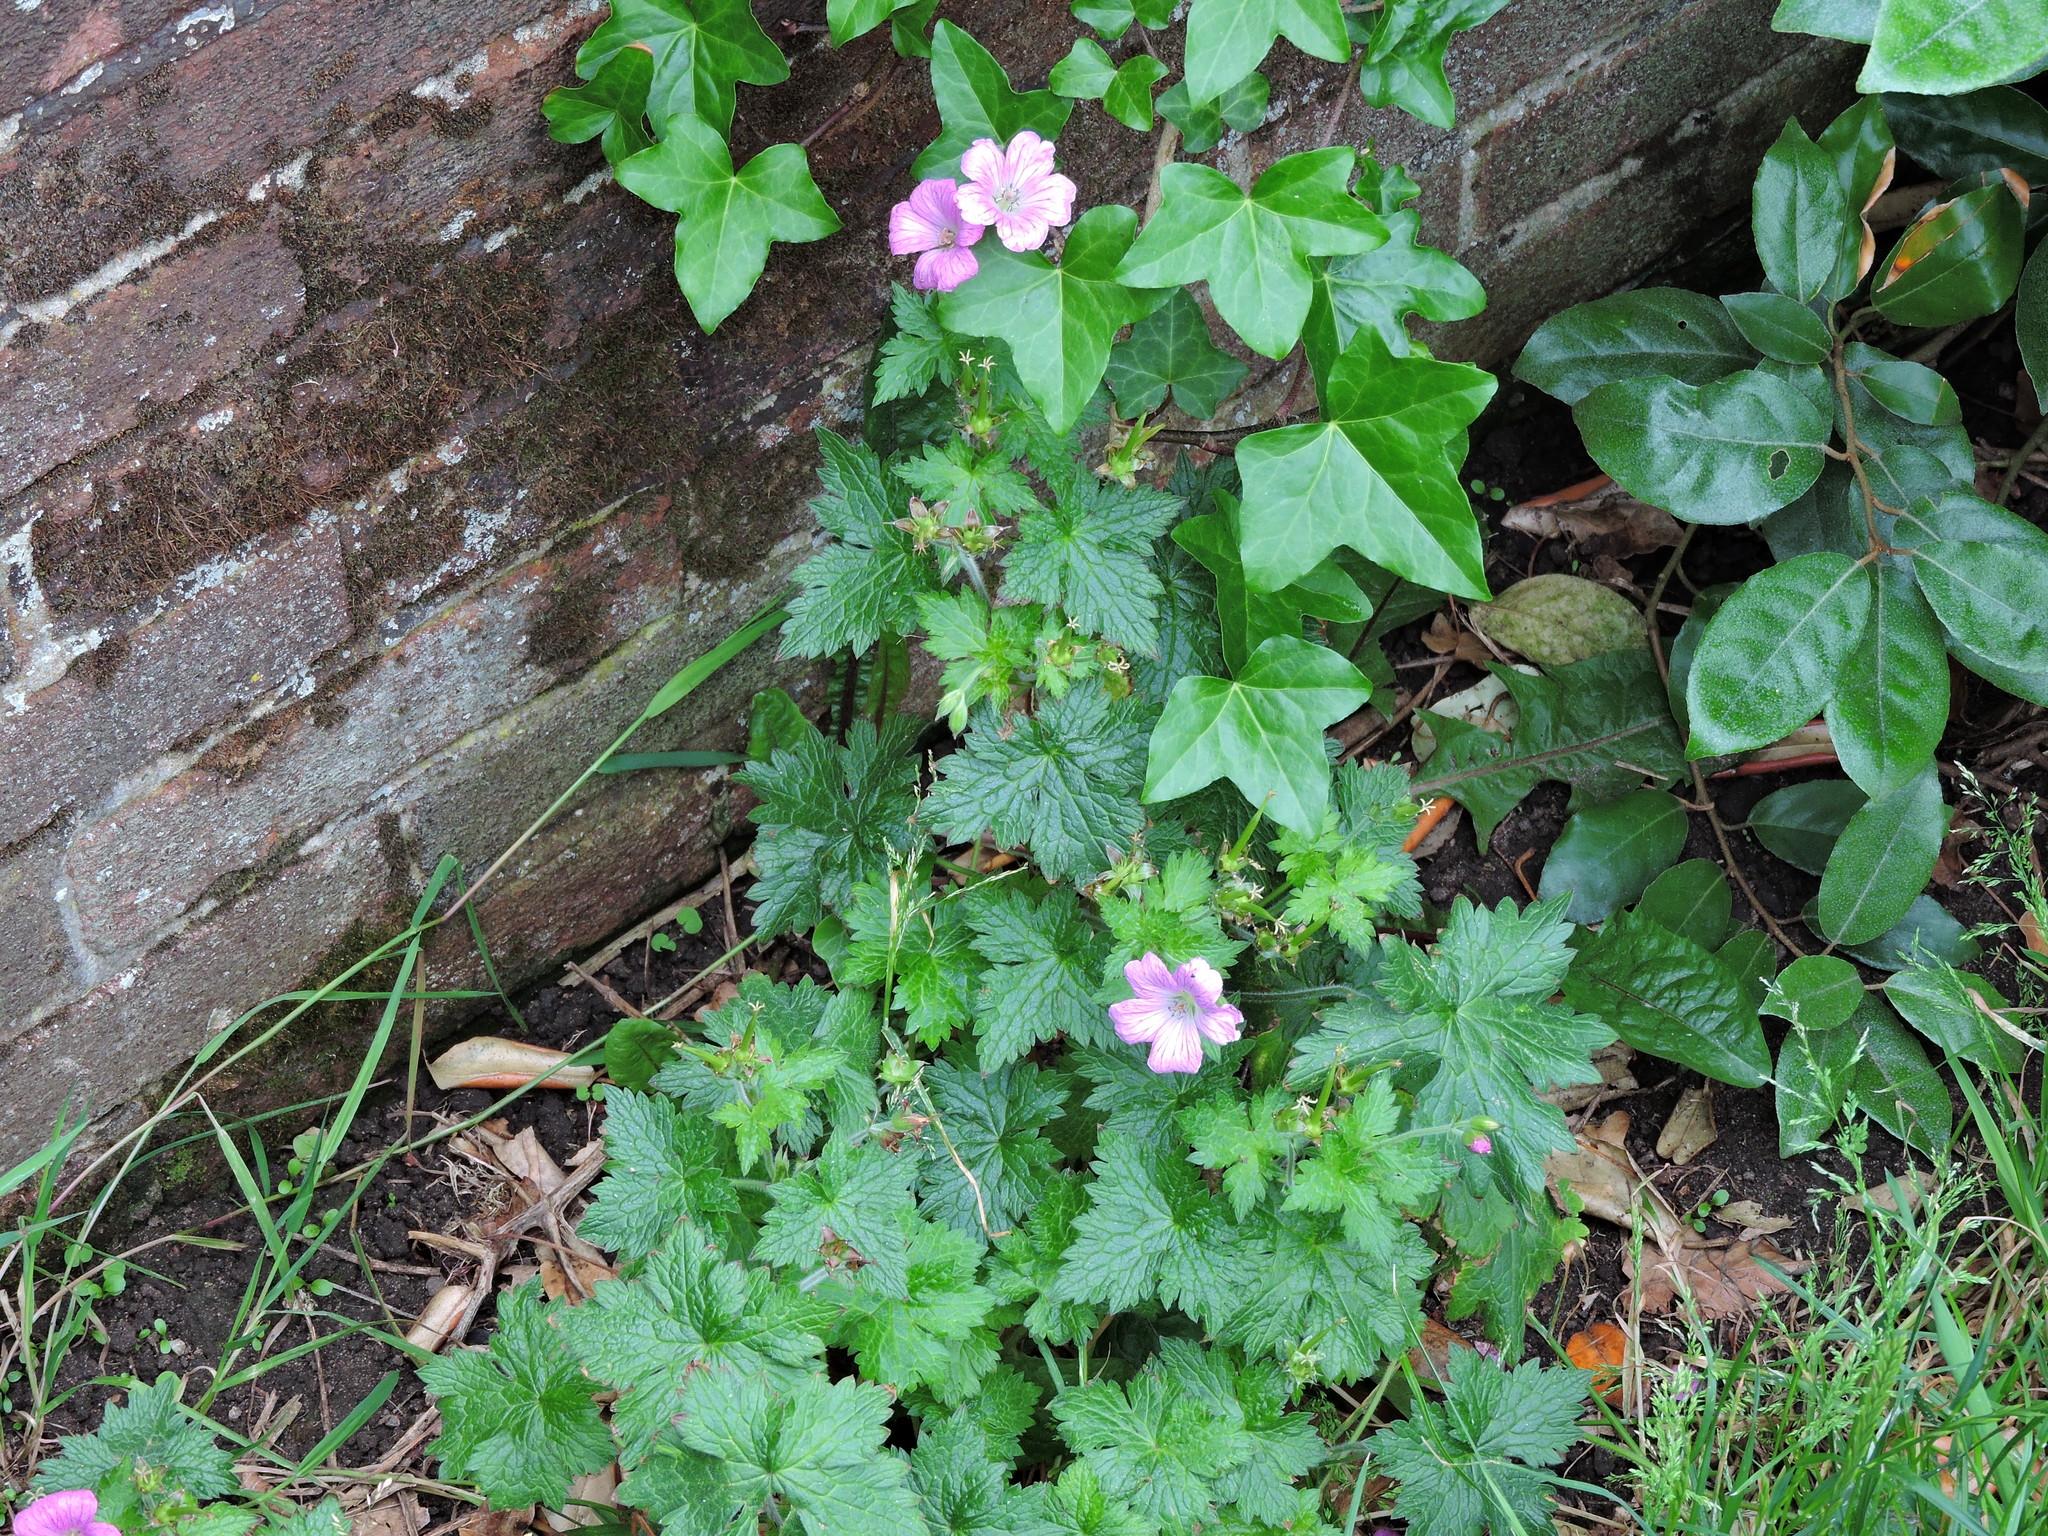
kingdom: Plantae
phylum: Tracheophyta
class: Magnoliopsida
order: Geraniales
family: Geraniaceae
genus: Geranium
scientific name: Geranium oxonianum
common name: Druce's crane's-bill
